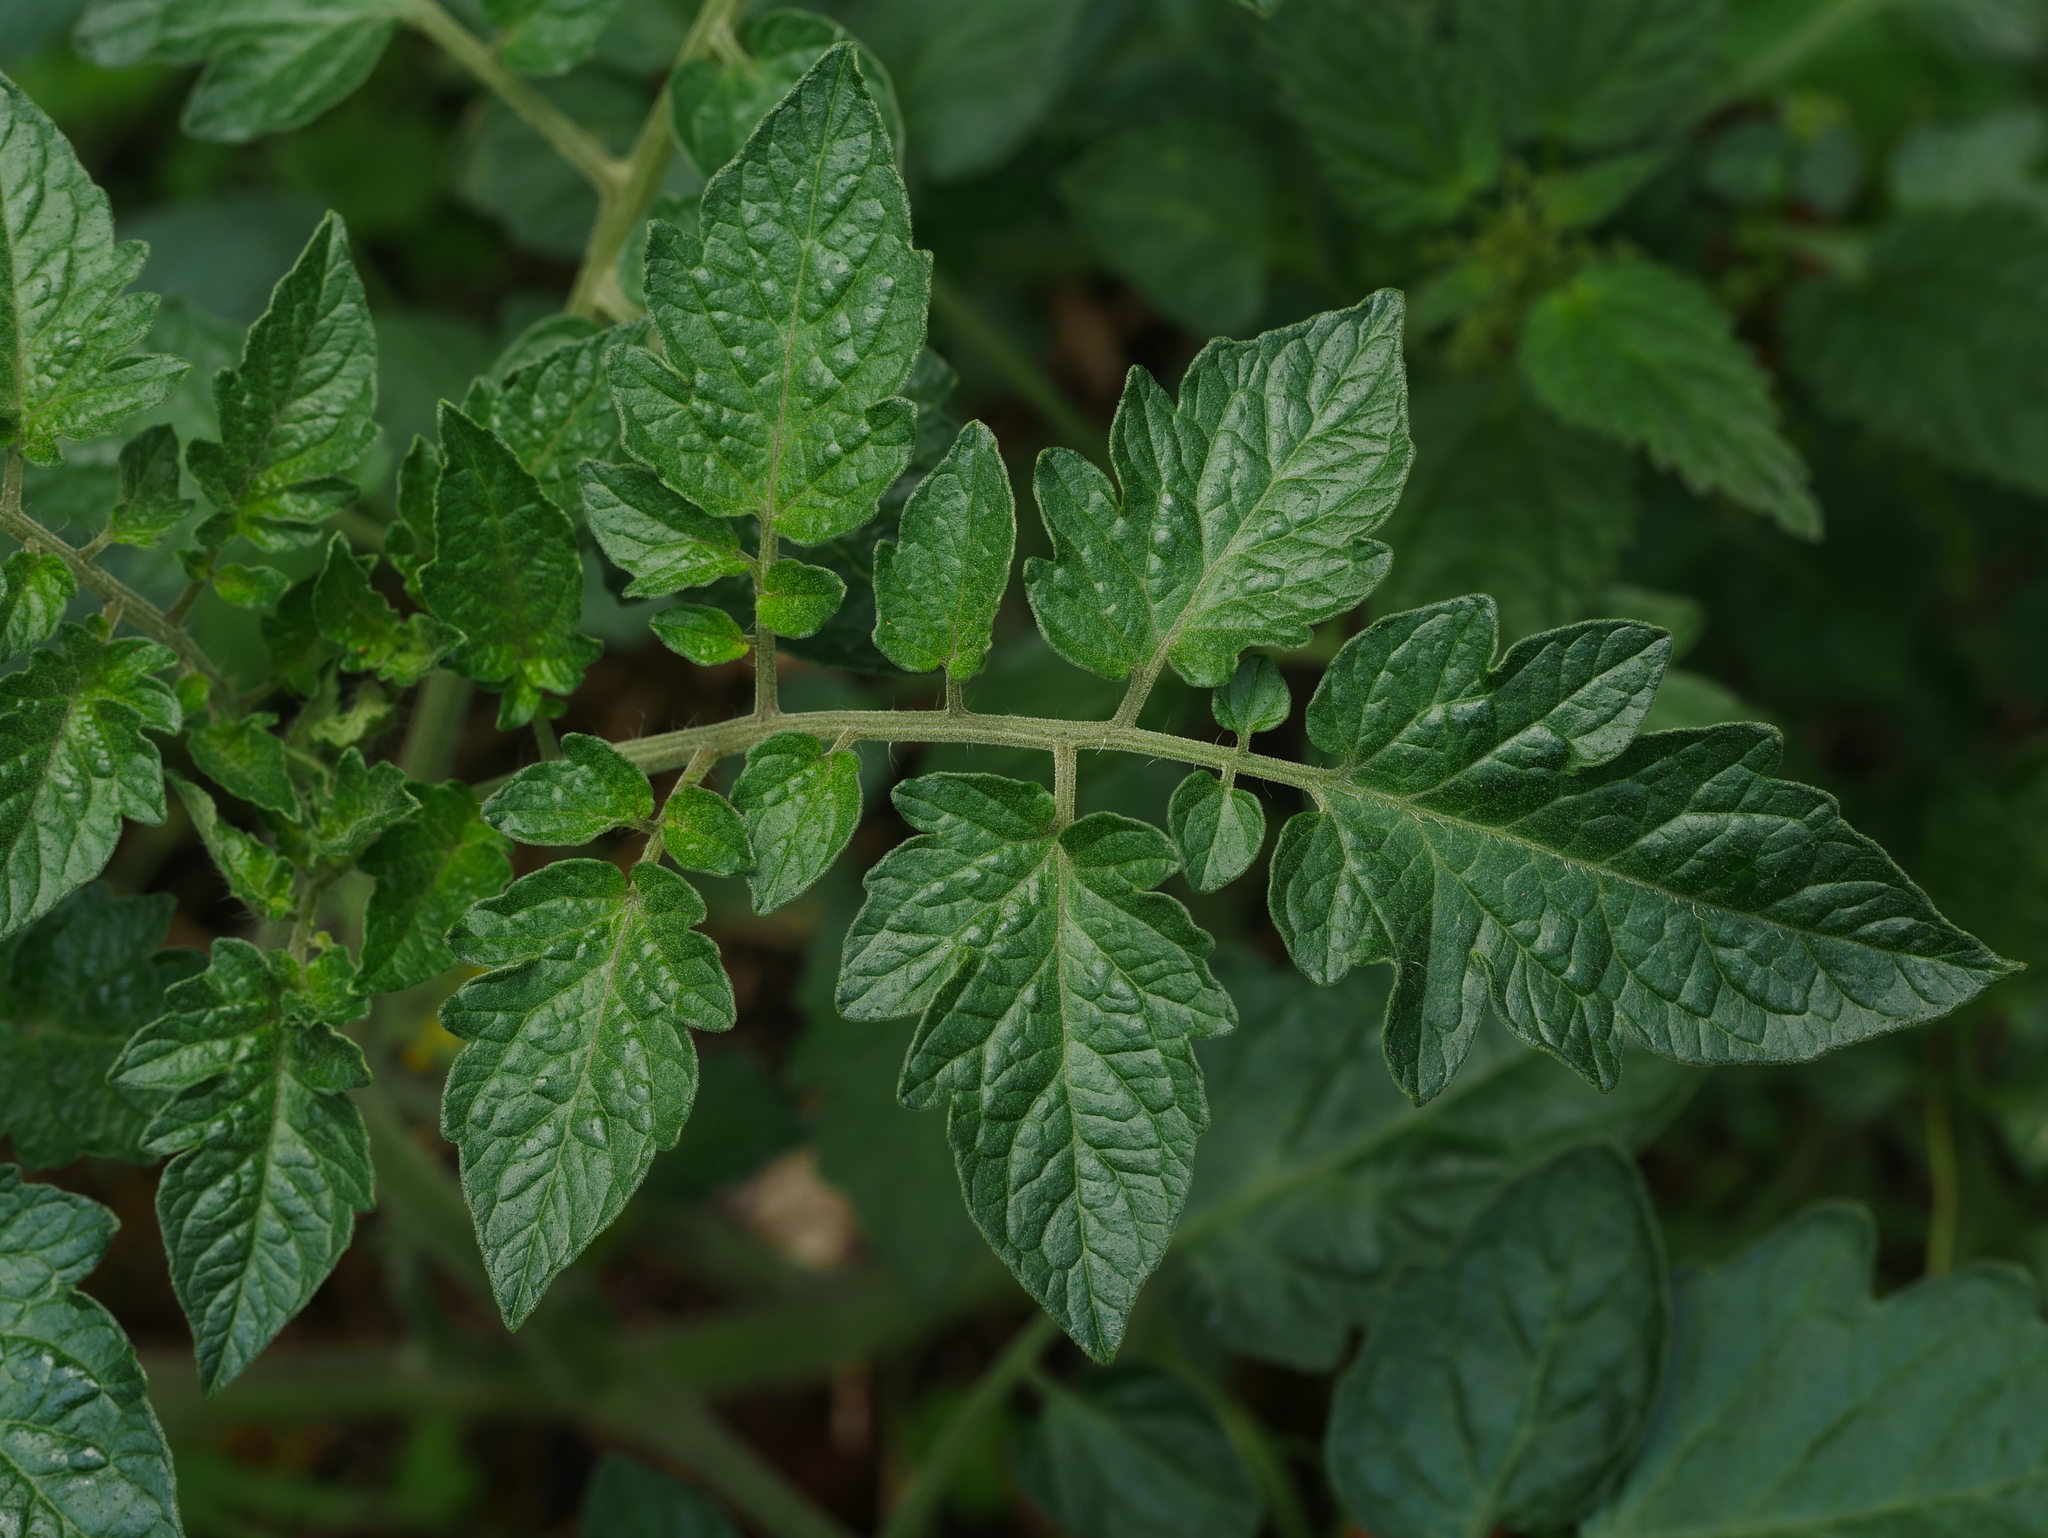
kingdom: Plantae
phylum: Tracheophyta
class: Magnoliopsida
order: Solanales
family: Solanaceae
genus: Solanum
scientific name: Solanum lycopersicum
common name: Garden tomato
